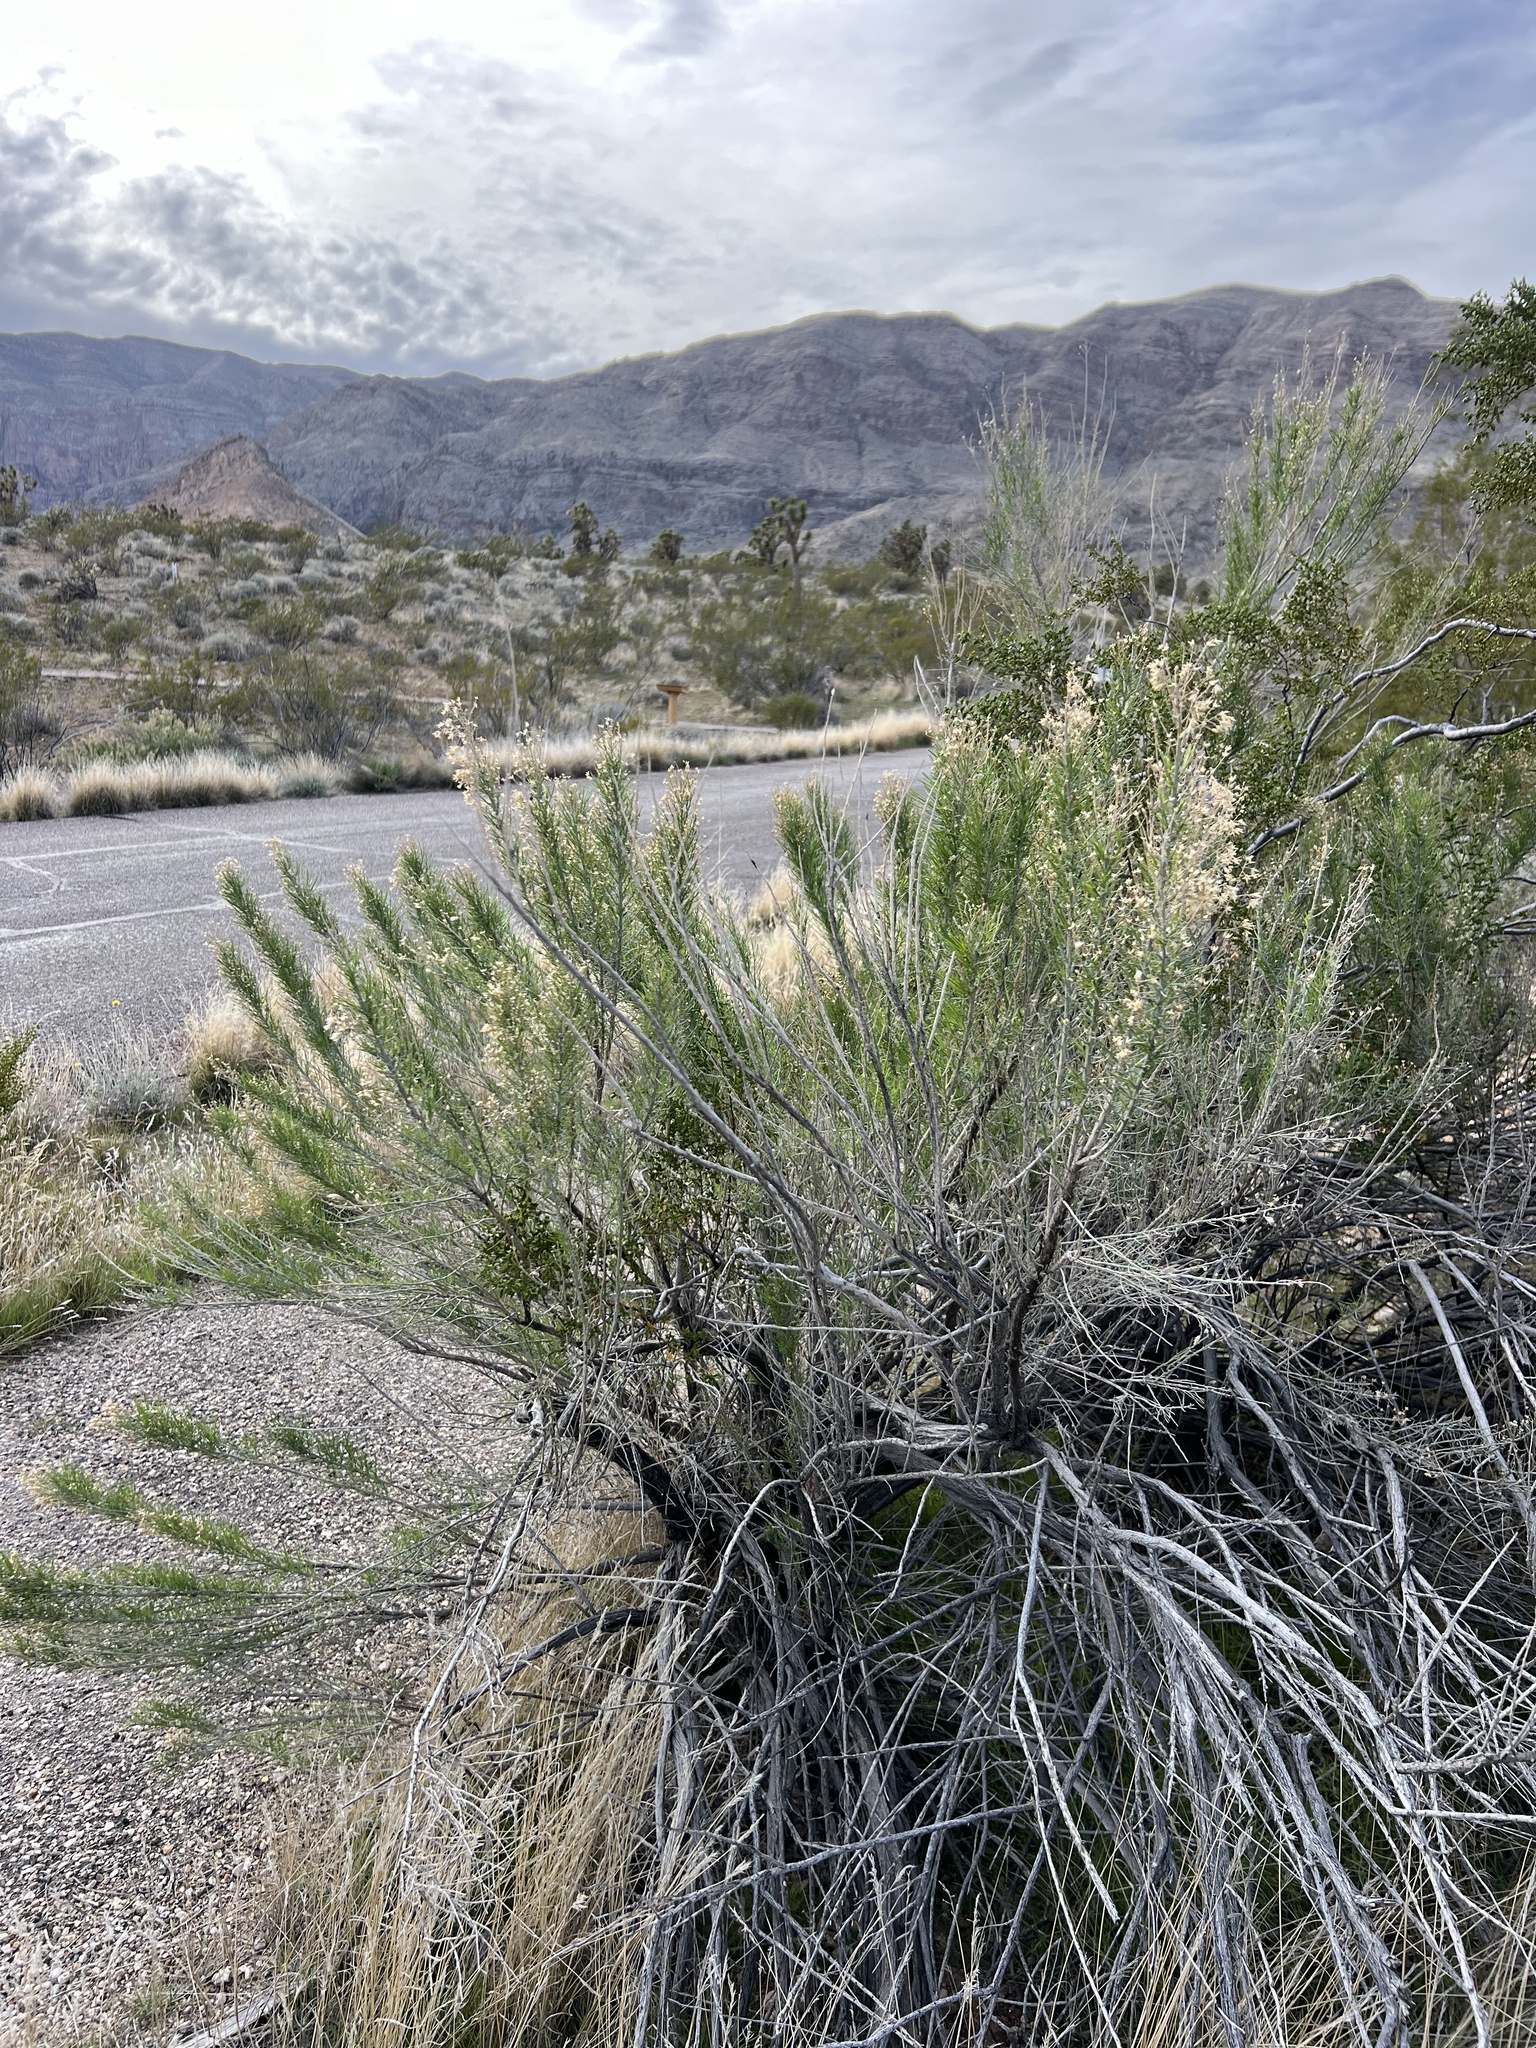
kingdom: Plantae
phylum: Tracheophyta
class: Magnoliopsida
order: Asterales
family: Asteraceae
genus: Ericameria
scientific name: Ericameria paniculata
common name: Punctate rabbitbrush
